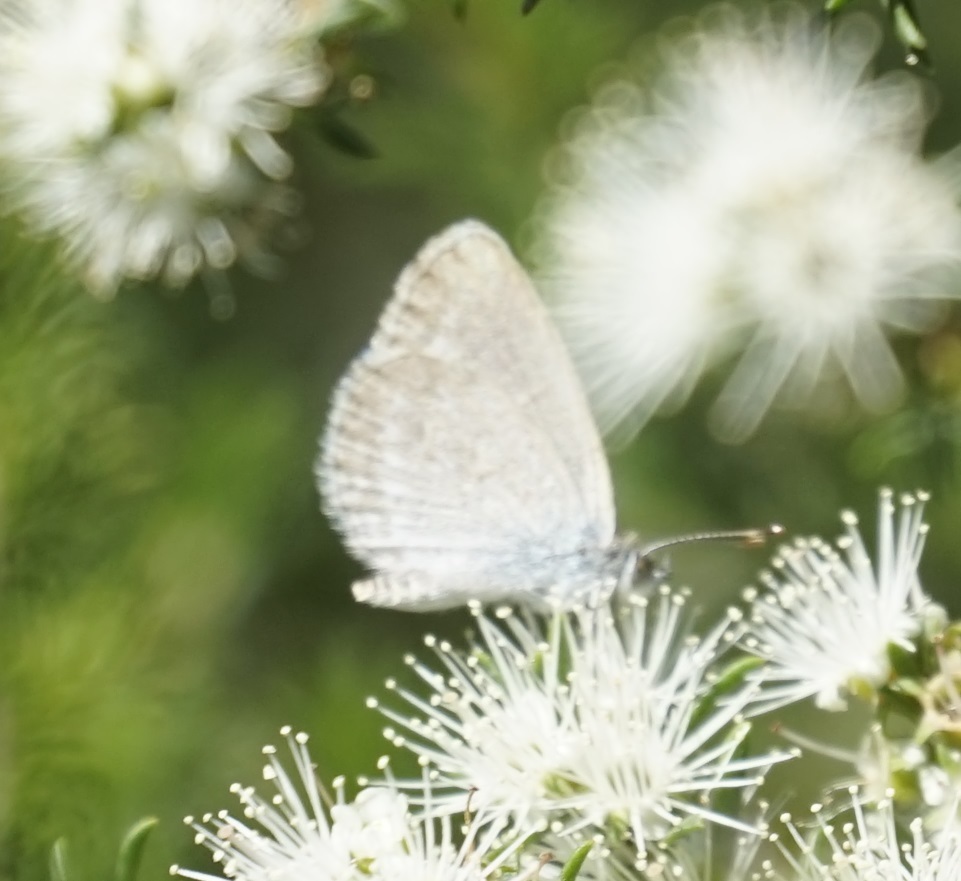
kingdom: Animalia
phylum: Arthropoda
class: Insecta
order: Lepidoptera
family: Lycaenidae
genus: Zizina
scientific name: Zizina labradus
